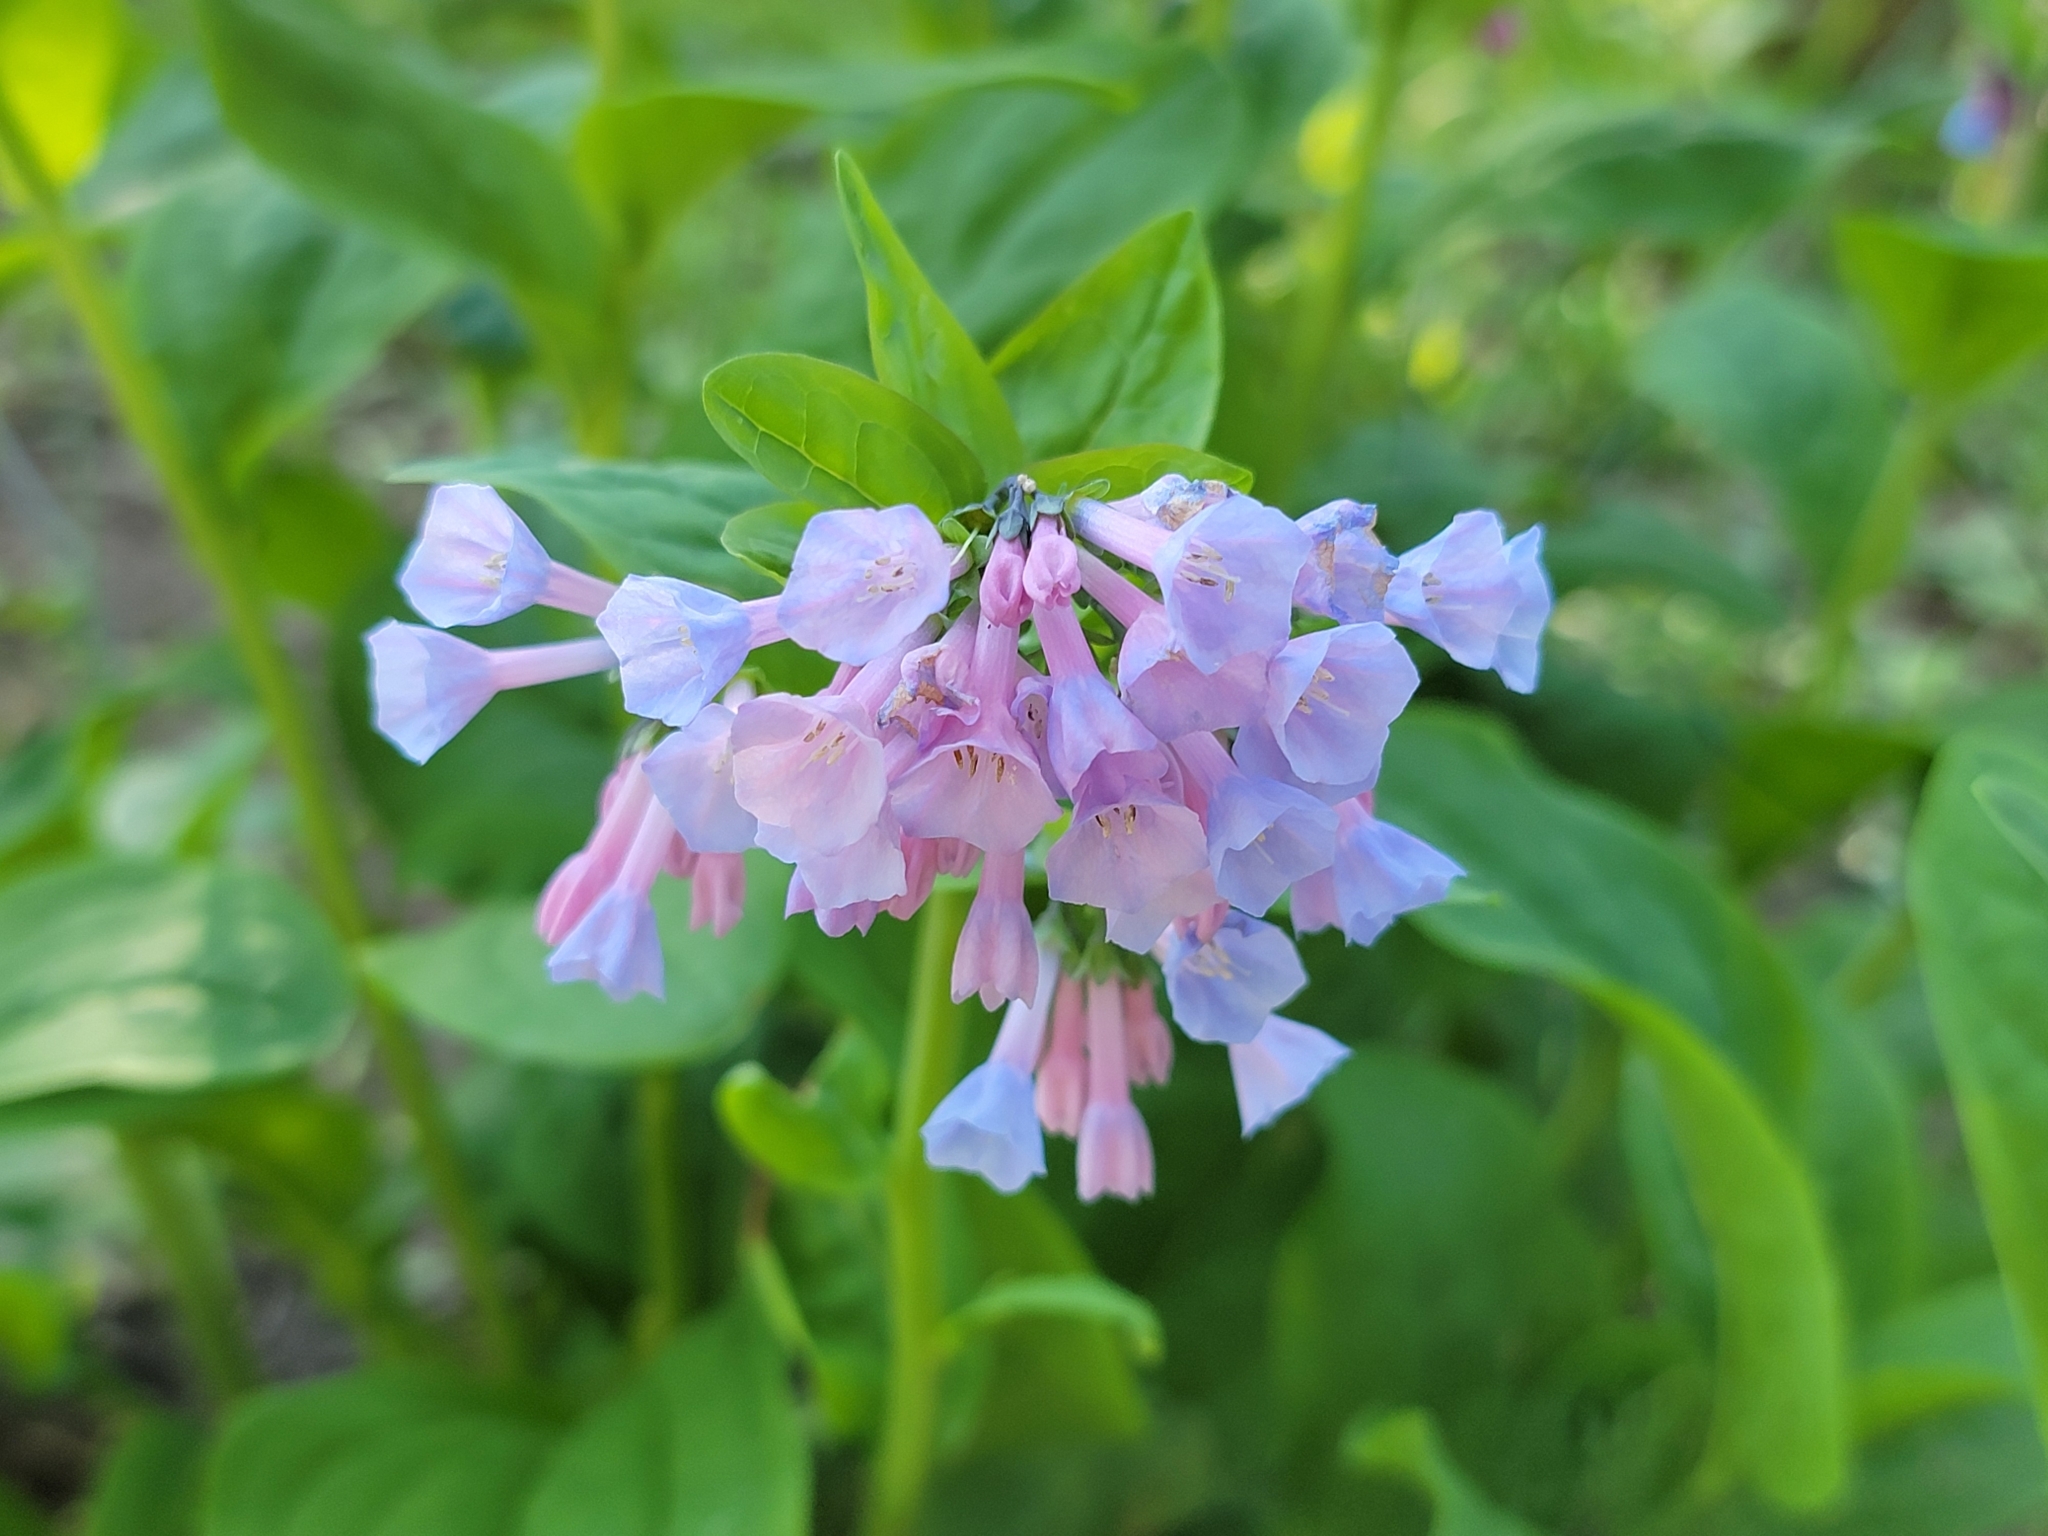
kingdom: Plantae
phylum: Tracheophyta
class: Magnoliopsida
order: Boraginales
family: Boraginaceae
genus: Mertensia
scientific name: Mertensia virginica
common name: Virginia bluebells
